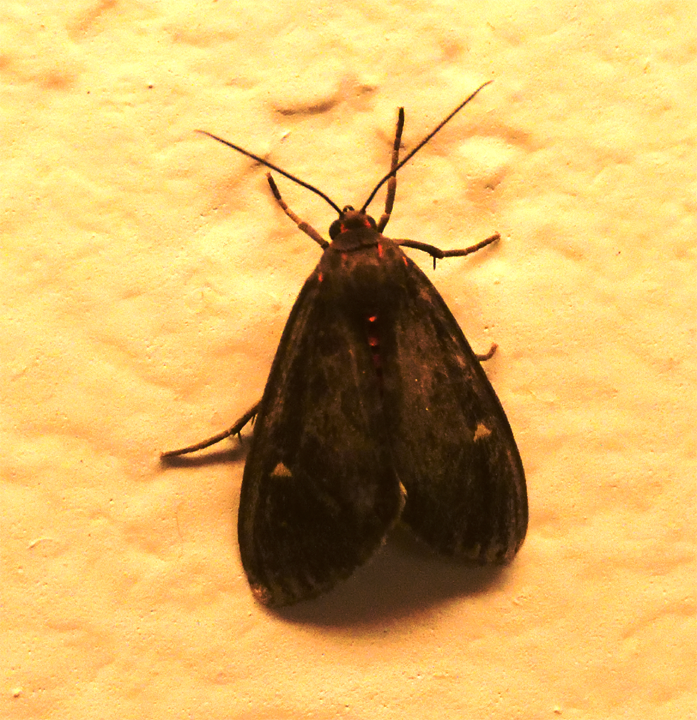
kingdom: Animalia
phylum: Arthropoda
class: Insecta
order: Lepidoptera
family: Erebidae
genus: Euchaetes
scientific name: Euchaetes zella
